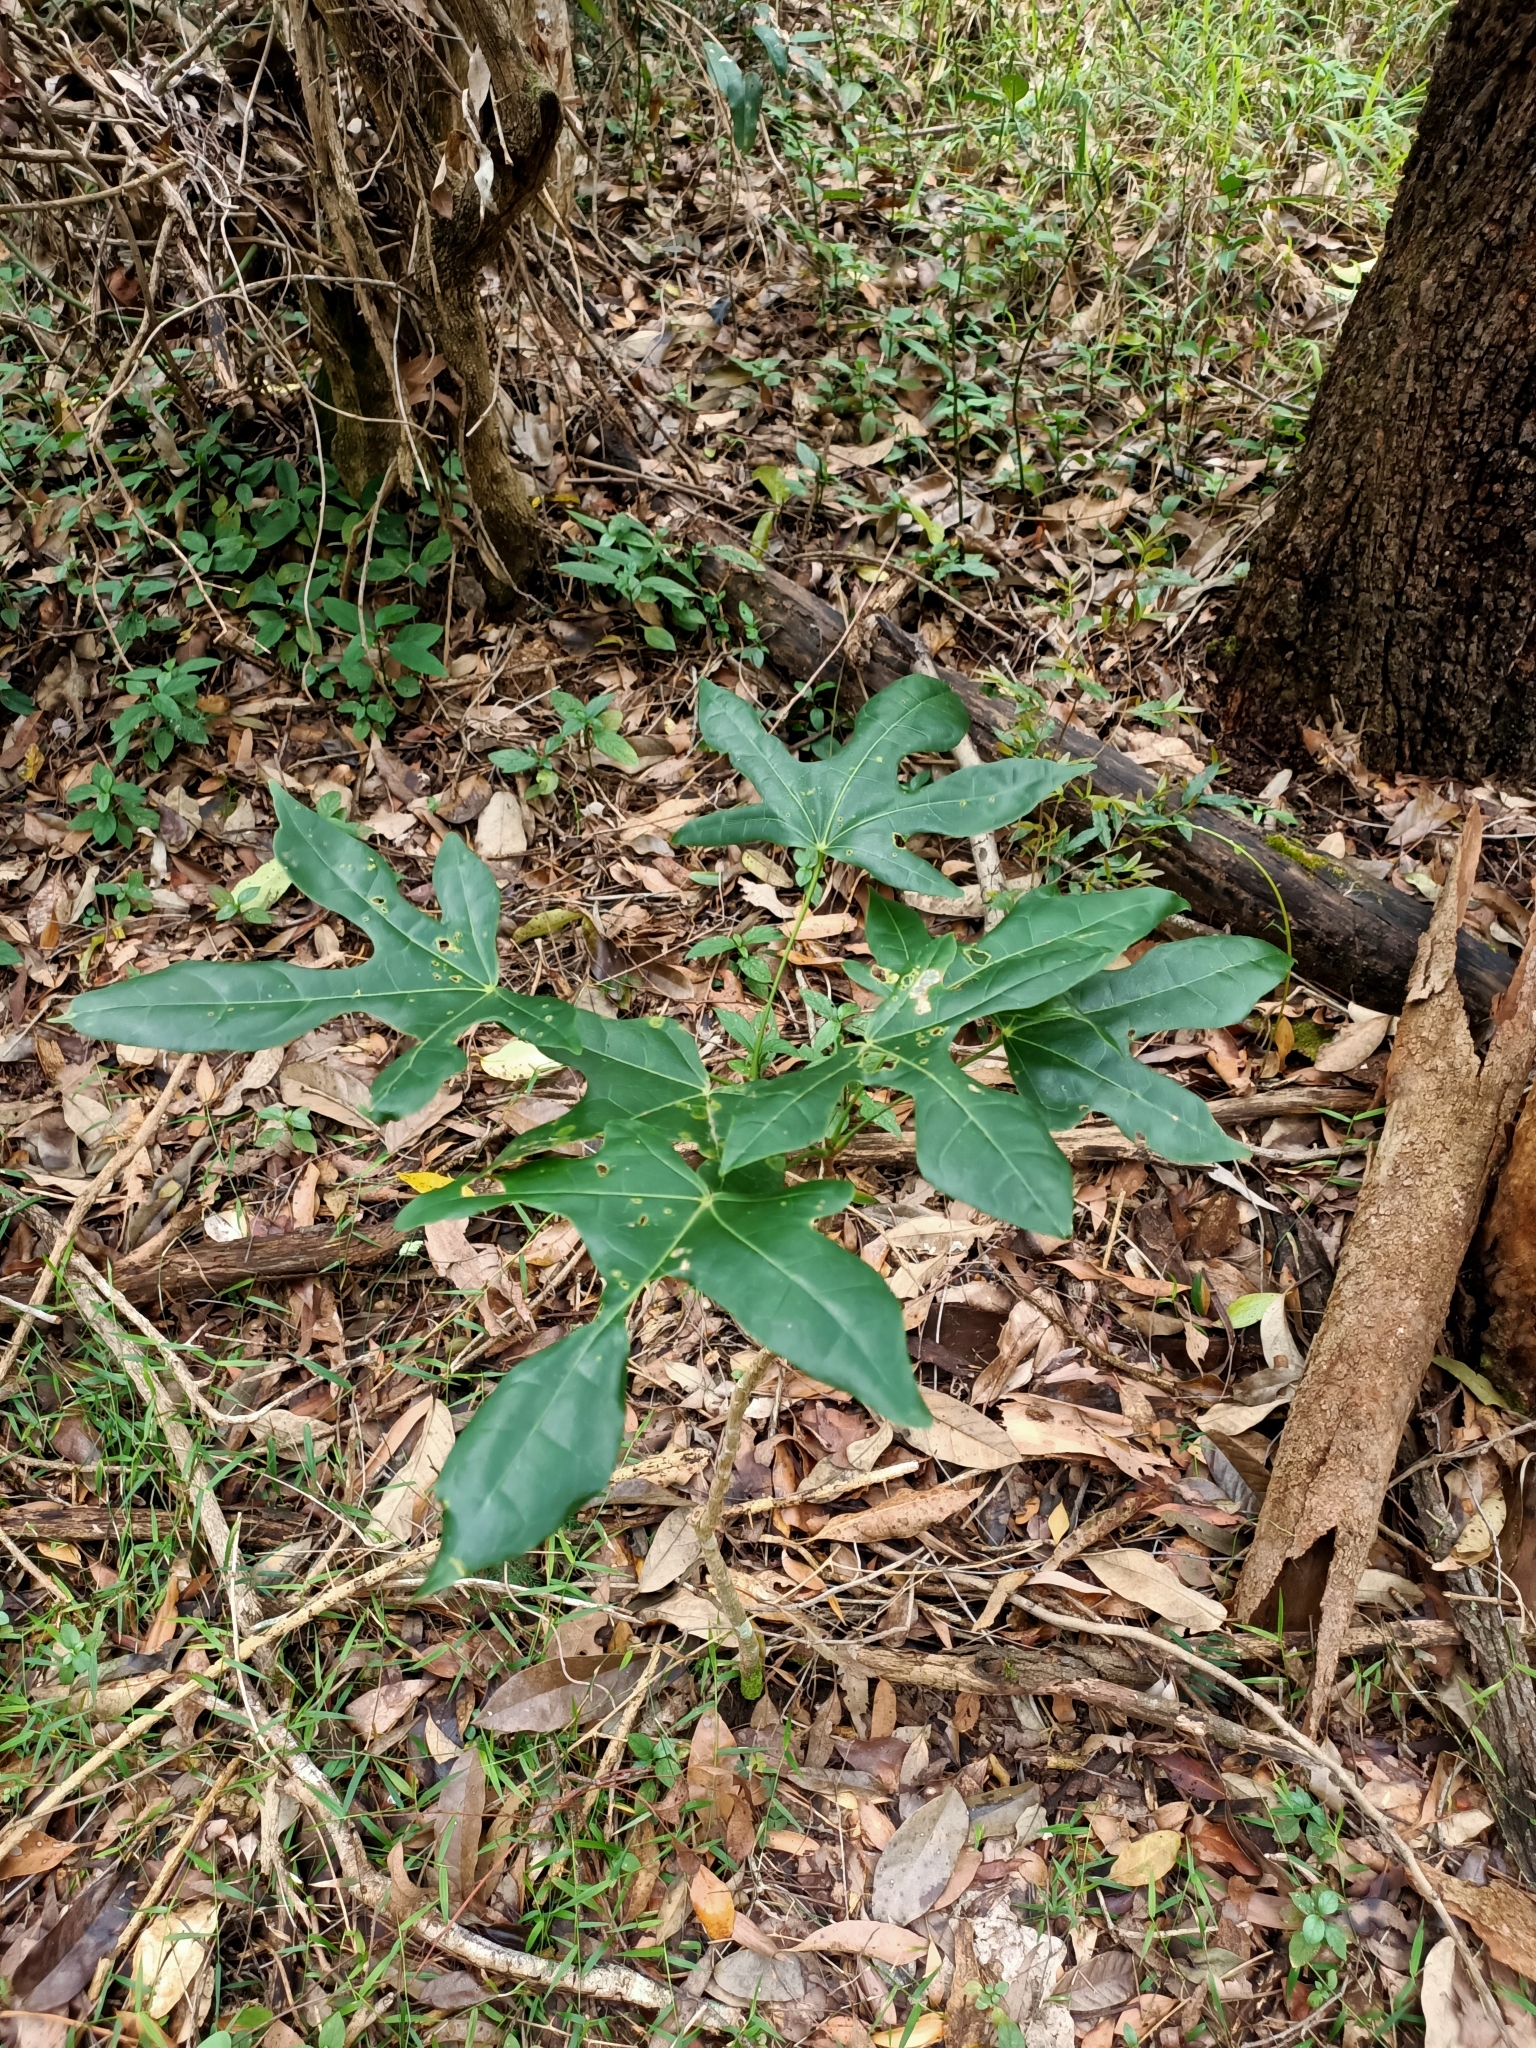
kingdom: Plantae
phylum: Tracheophyta
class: Magnoliopsida
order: Malvales
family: Malvaceae
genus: Brachychiton
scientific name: Brachychiton acerifolius
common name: Illawarra flame tree
